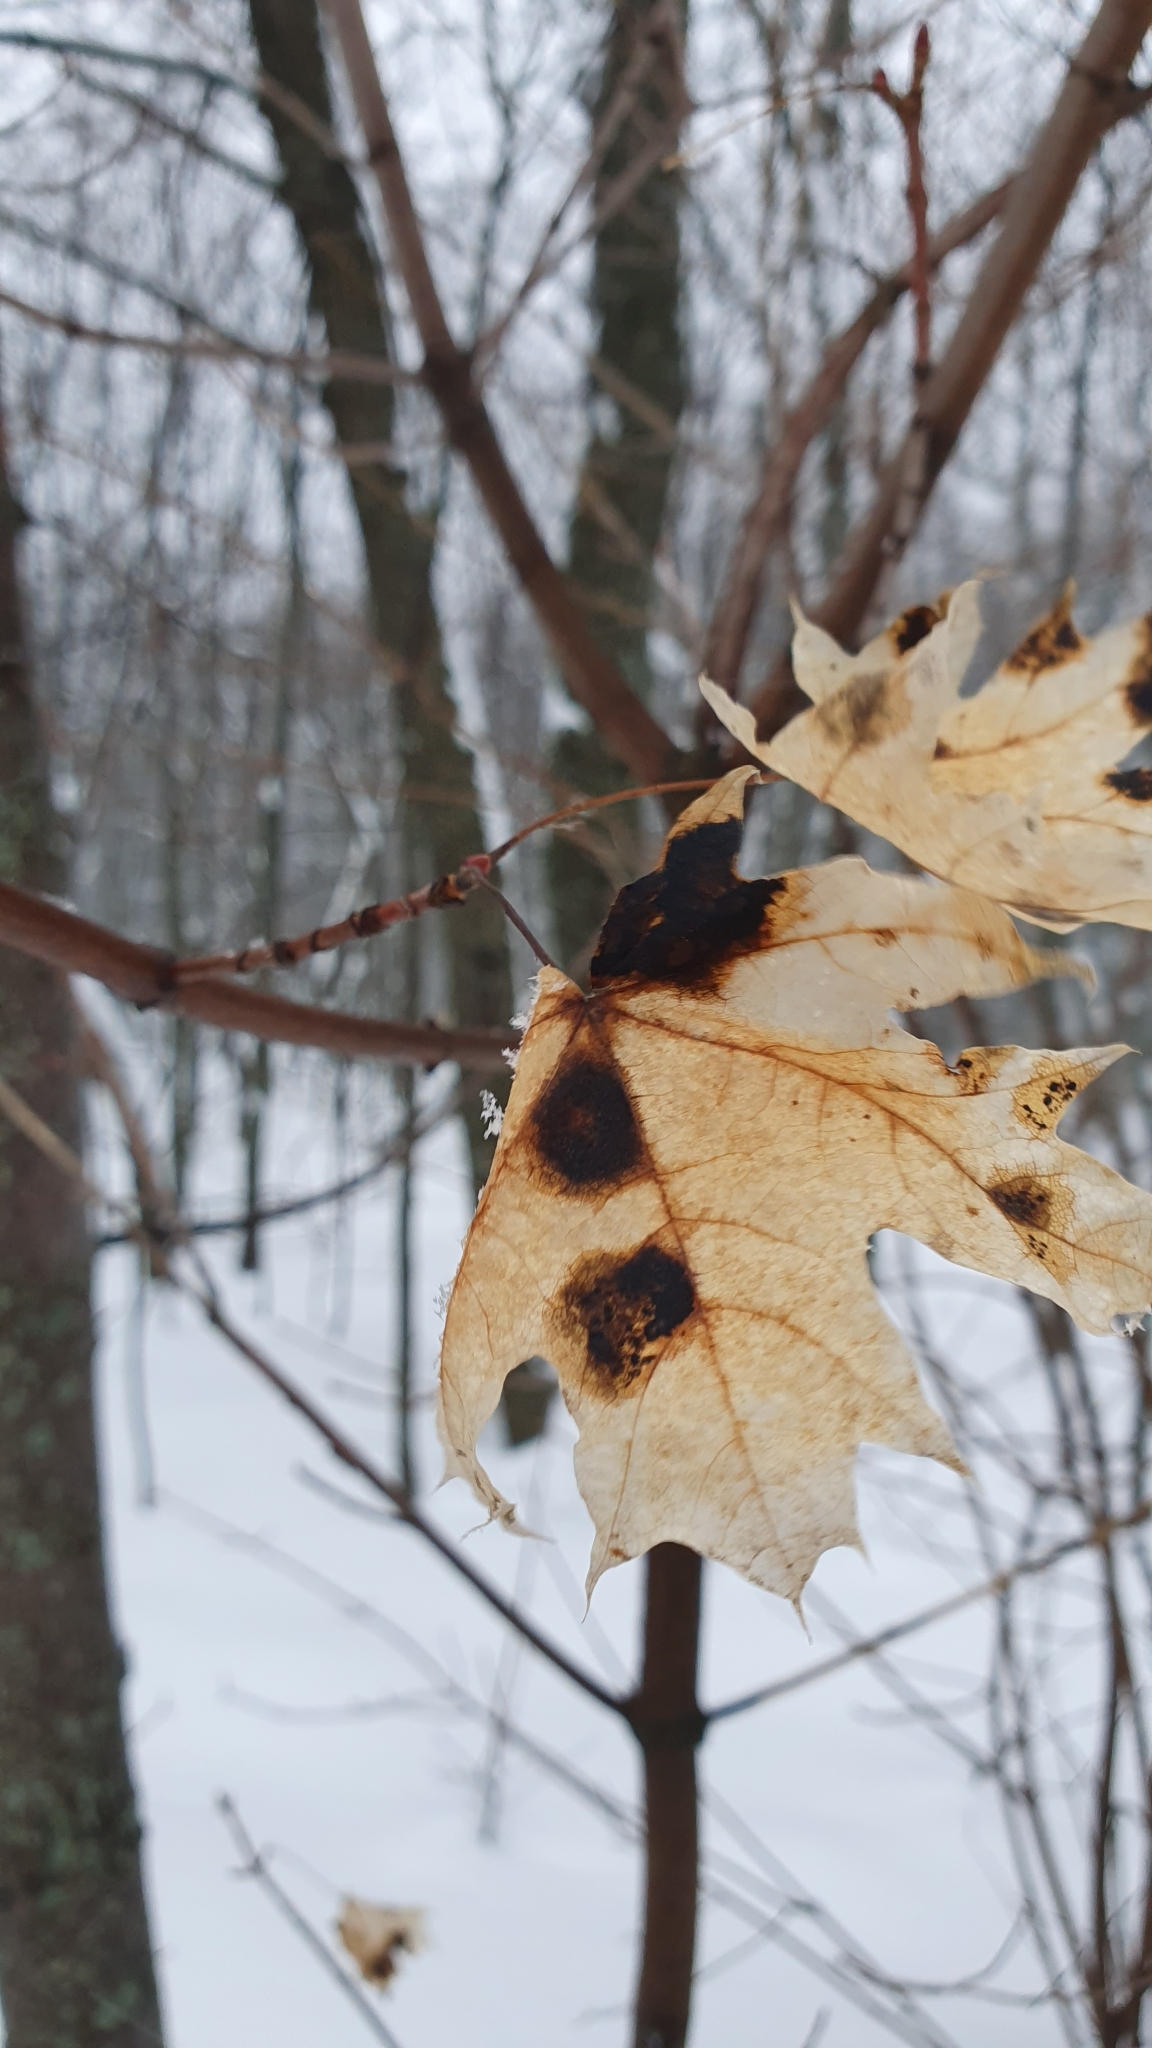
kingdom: Fungi
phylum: Ascomycota
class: Leotiomycetes
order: Rhytismatales
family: Rhytismataceae
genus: Rhytisma
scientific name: Rhytisma acerinum
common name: European tar spot
